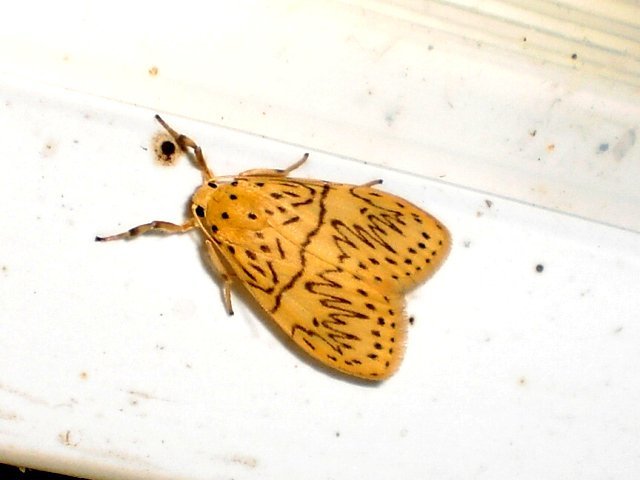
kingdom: Animalia
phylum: Arthropoda
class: Insecta
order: Lepidoptera
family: Erebidae
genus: Miltochrista
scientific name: Miltochrista undulosa
